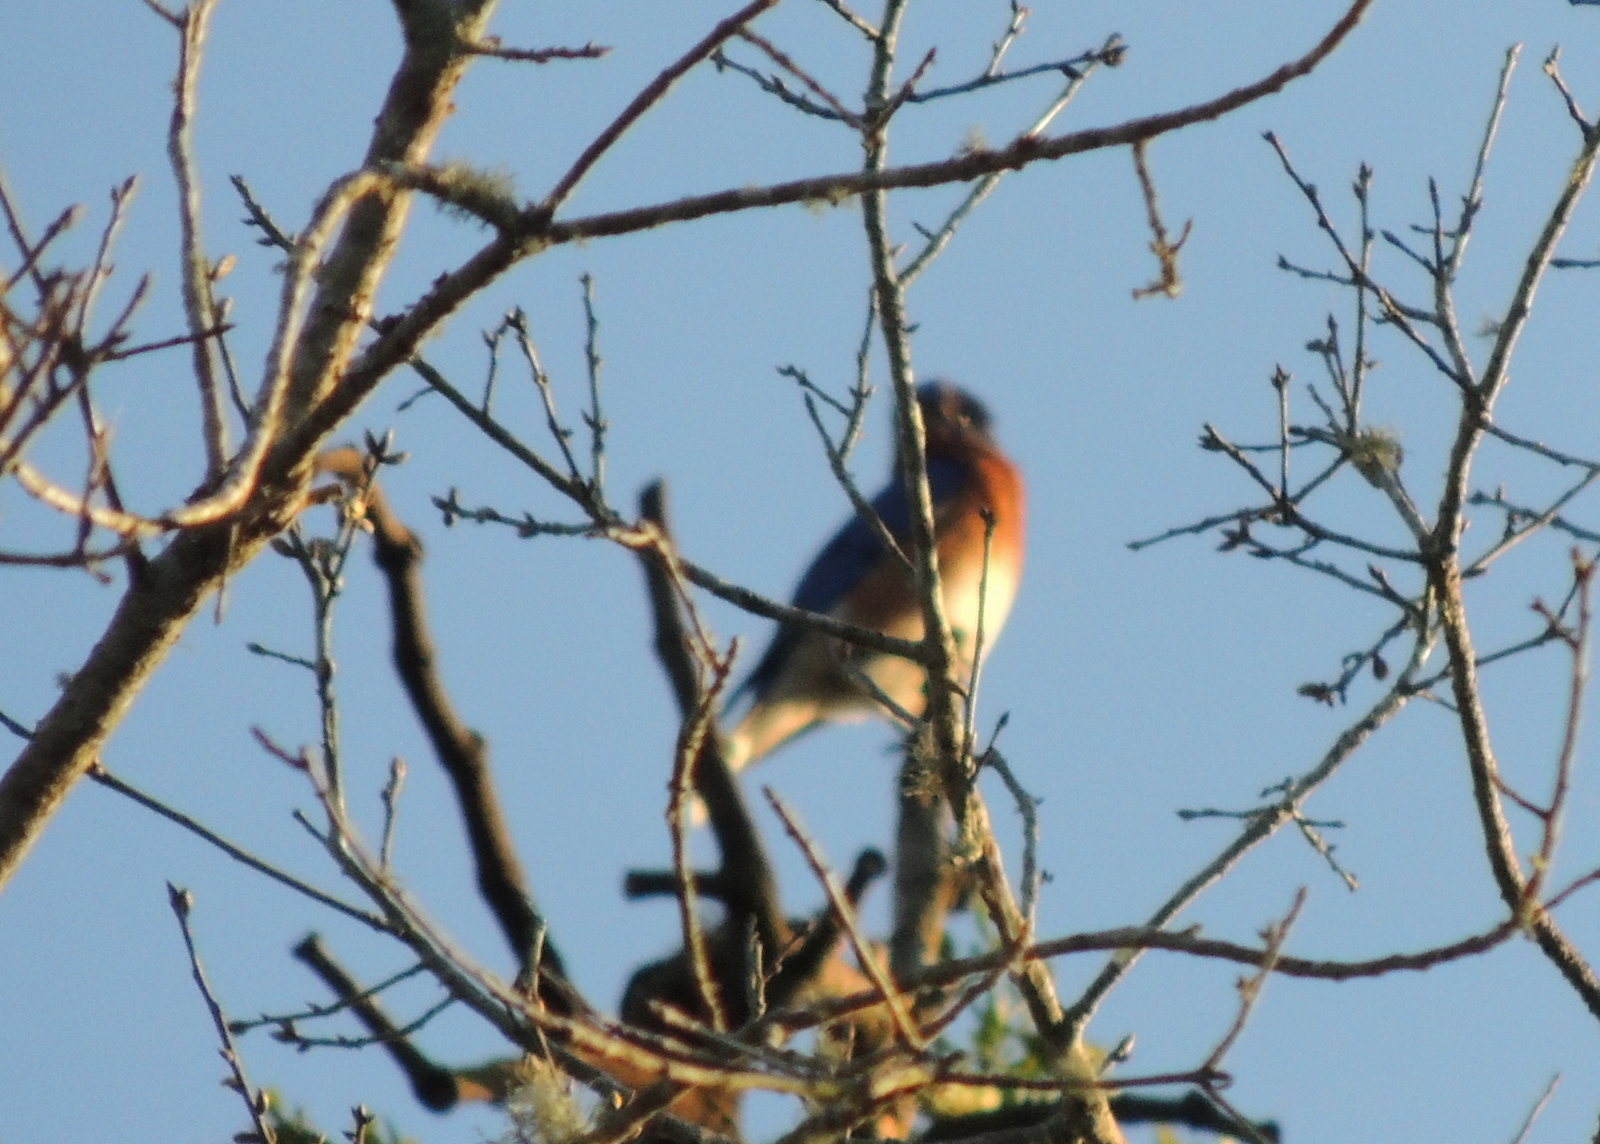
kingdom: Animalia
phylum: Chordata
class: Aves
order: Passeriformes
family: Turdidae
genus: Sialia
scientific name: Sialia sialis
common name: Eastern bluebird
